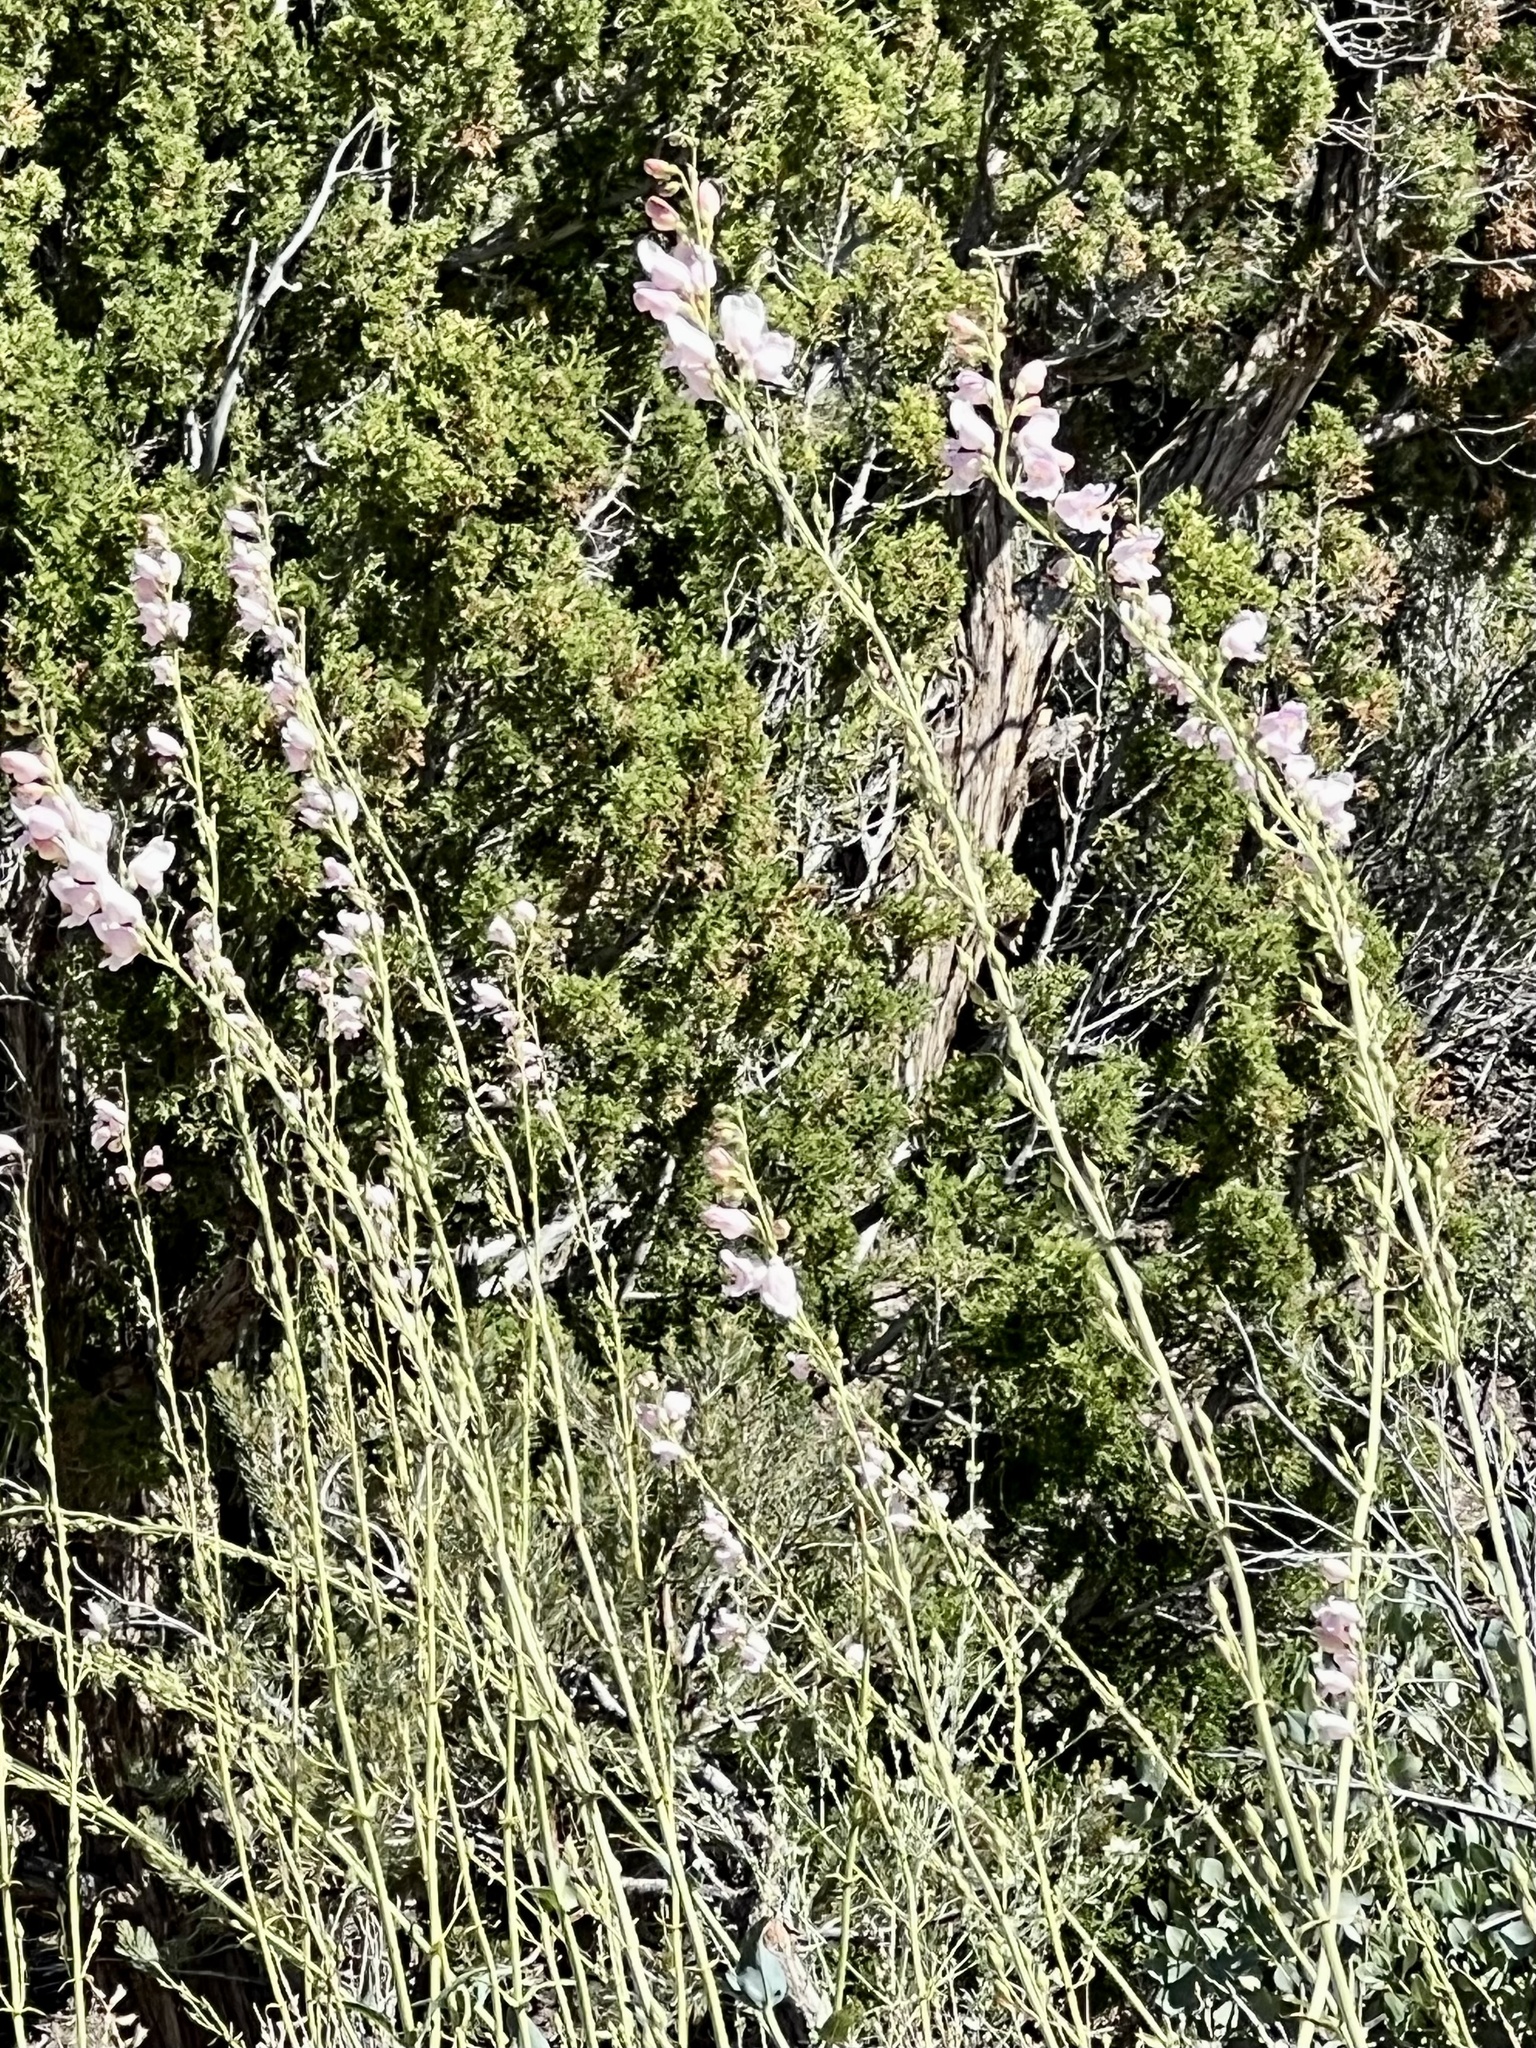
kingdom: Plantae
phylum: Tracheophyta
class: Magnoliopsida
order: Lamiales
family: Plantaginaceae
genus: Penstemon
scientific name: Penstemon palmeri
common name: Palmer penstemon
